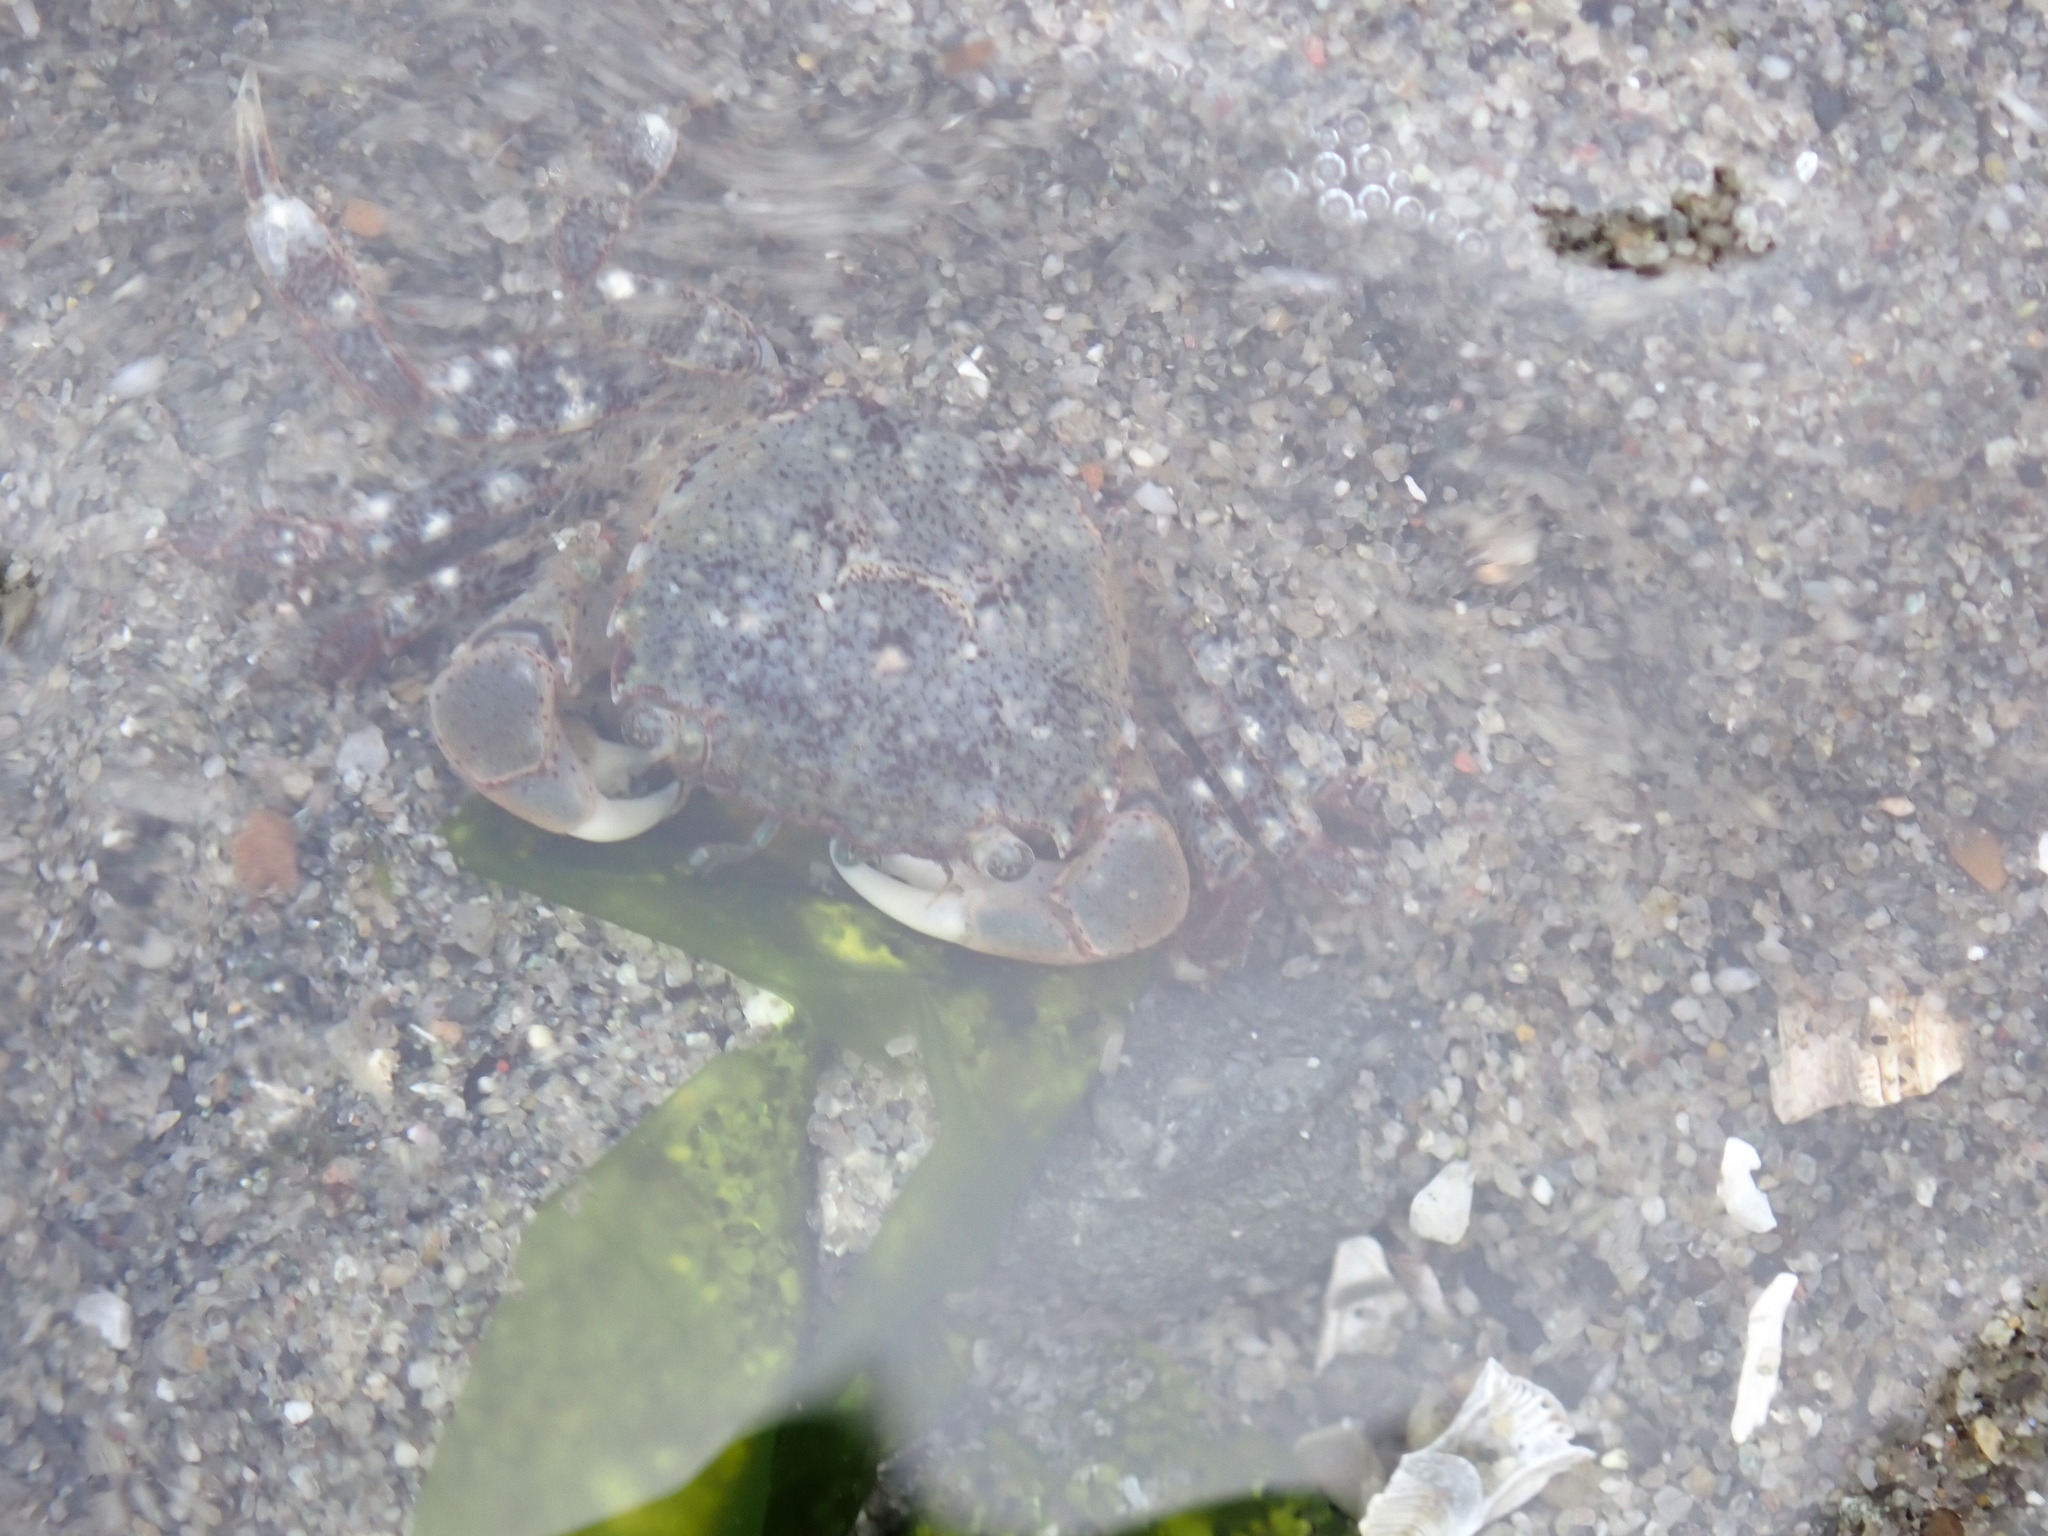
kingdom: Animalia
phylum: Arthropoda
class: Malacostraca
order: Decapoda
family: Varunidae
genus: Hemigrapsus
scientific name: Hemigrapsus oregonensis
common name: Yellow shore crab
